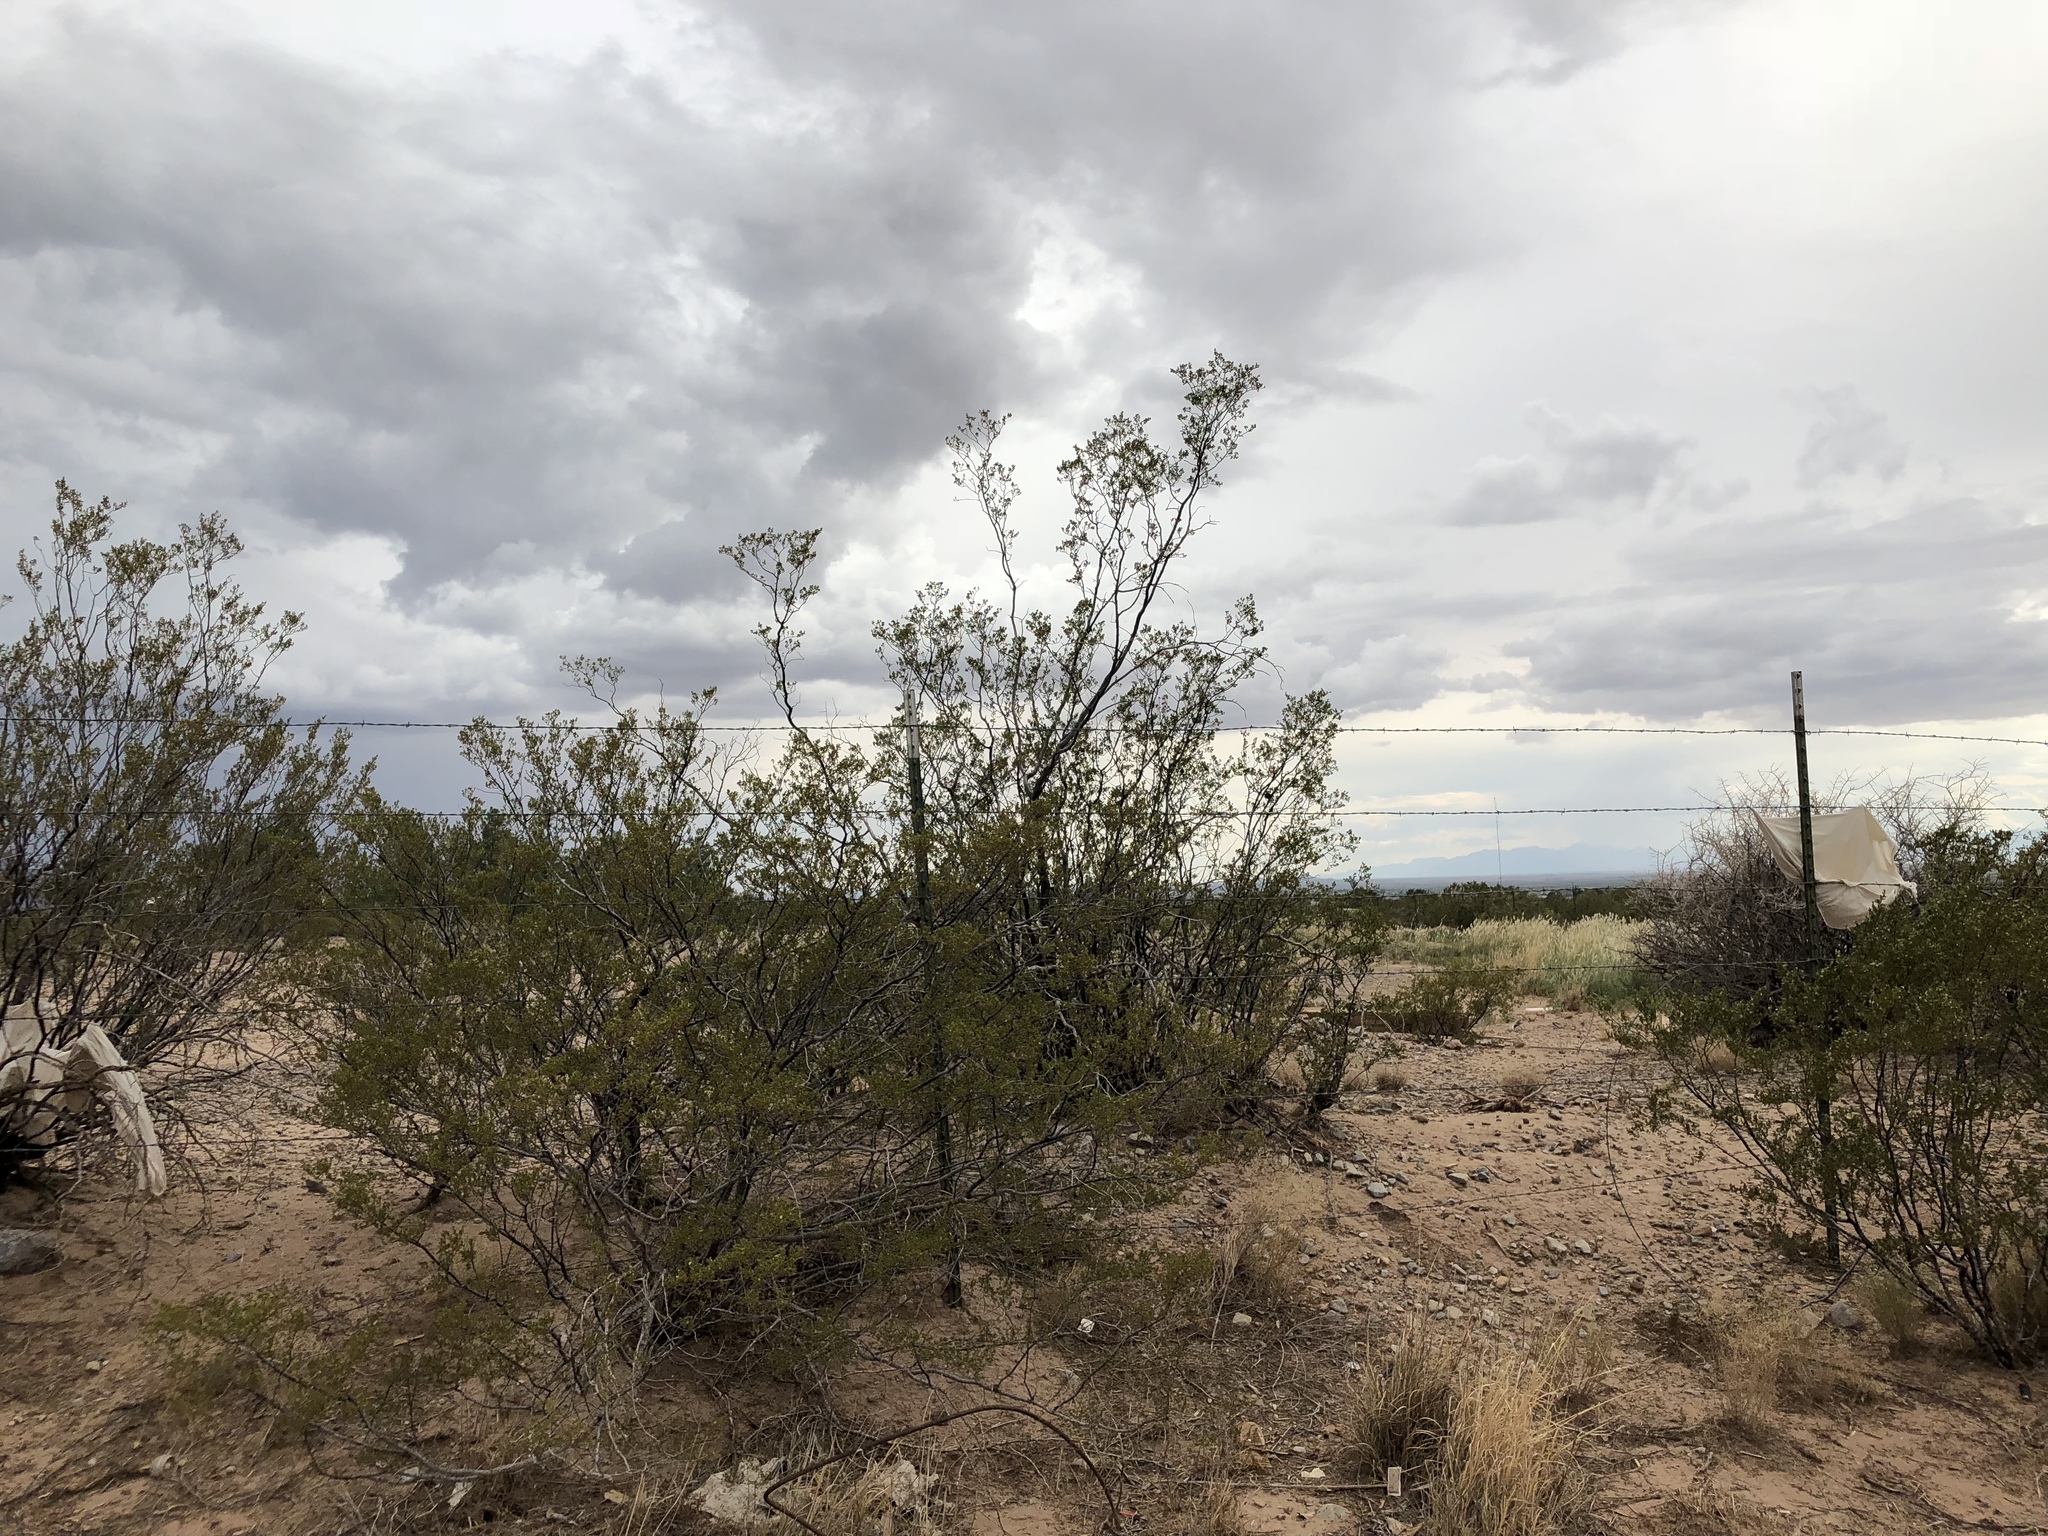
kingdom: Plantae
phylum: Tracheophyta
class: Magnoliopsida
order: Zygophyllales
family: Zygophyllaceae
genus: Larrea
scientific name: Larrea tridentata
